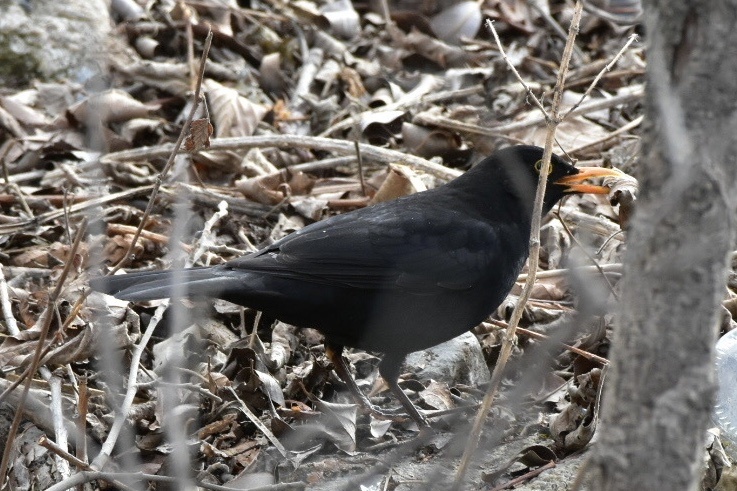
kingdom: Animalia
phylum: Chordata
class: Aves
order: Passeriformes
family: Turdidae
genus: Turdus
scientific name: Turdus merula
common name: Common blackbird
